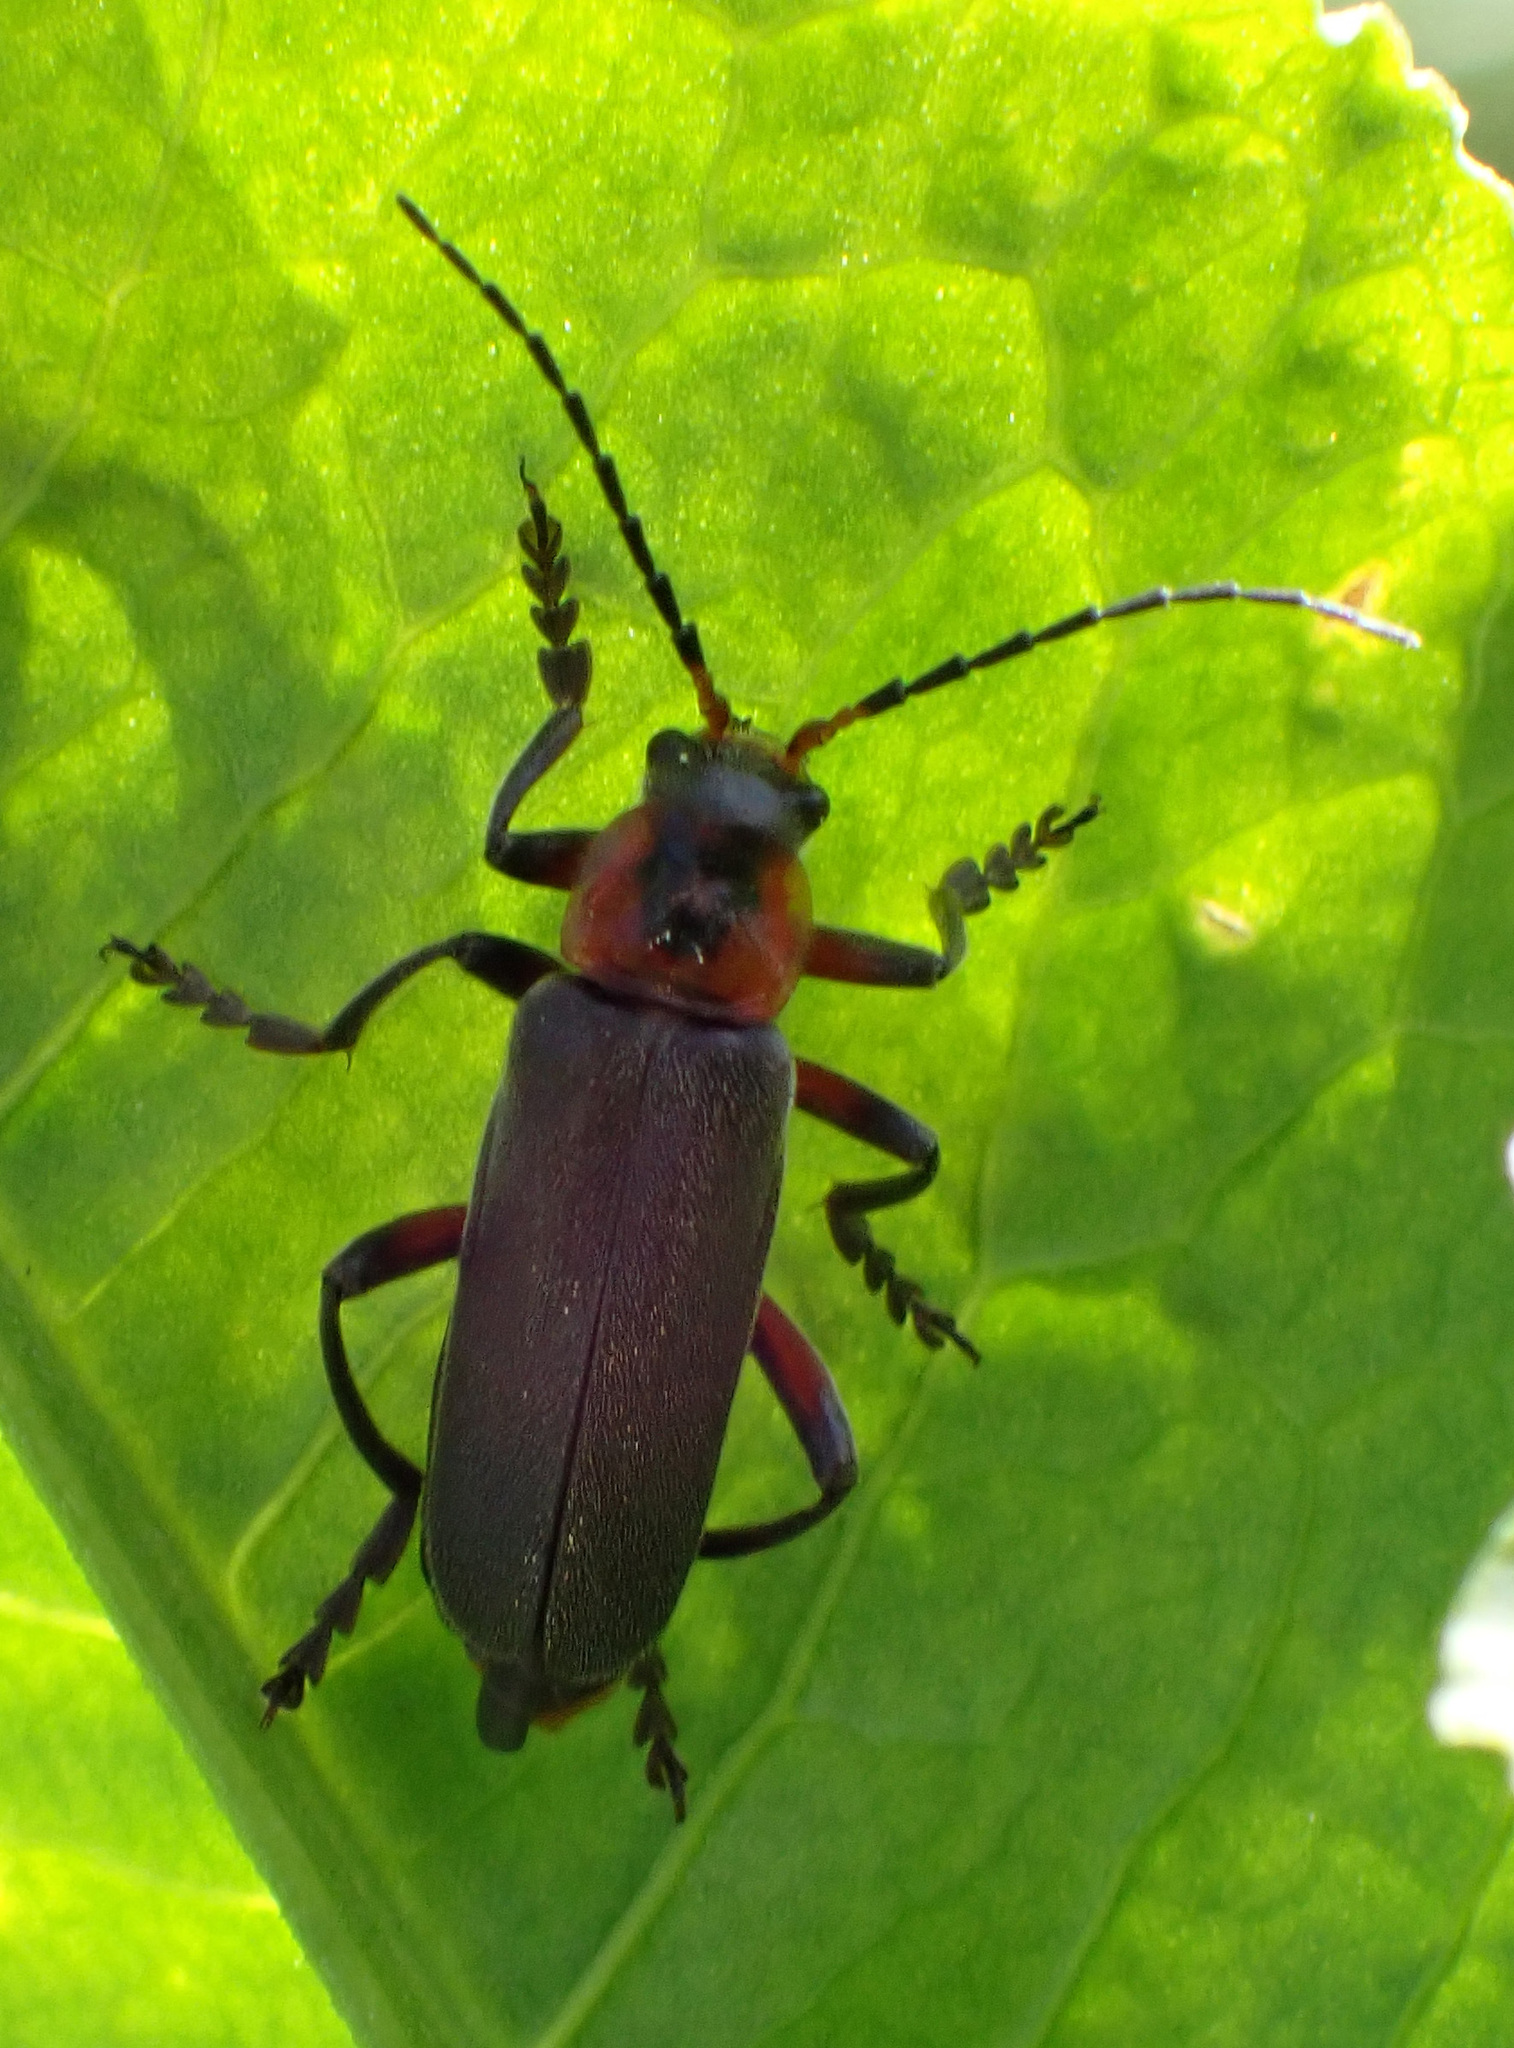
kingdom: Animalia
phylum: Arthropoda
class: Insecta
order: Coleoptera
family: Cantharidae
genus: Cantharis
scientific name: Cantharis rustica
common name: Soldier beetle
